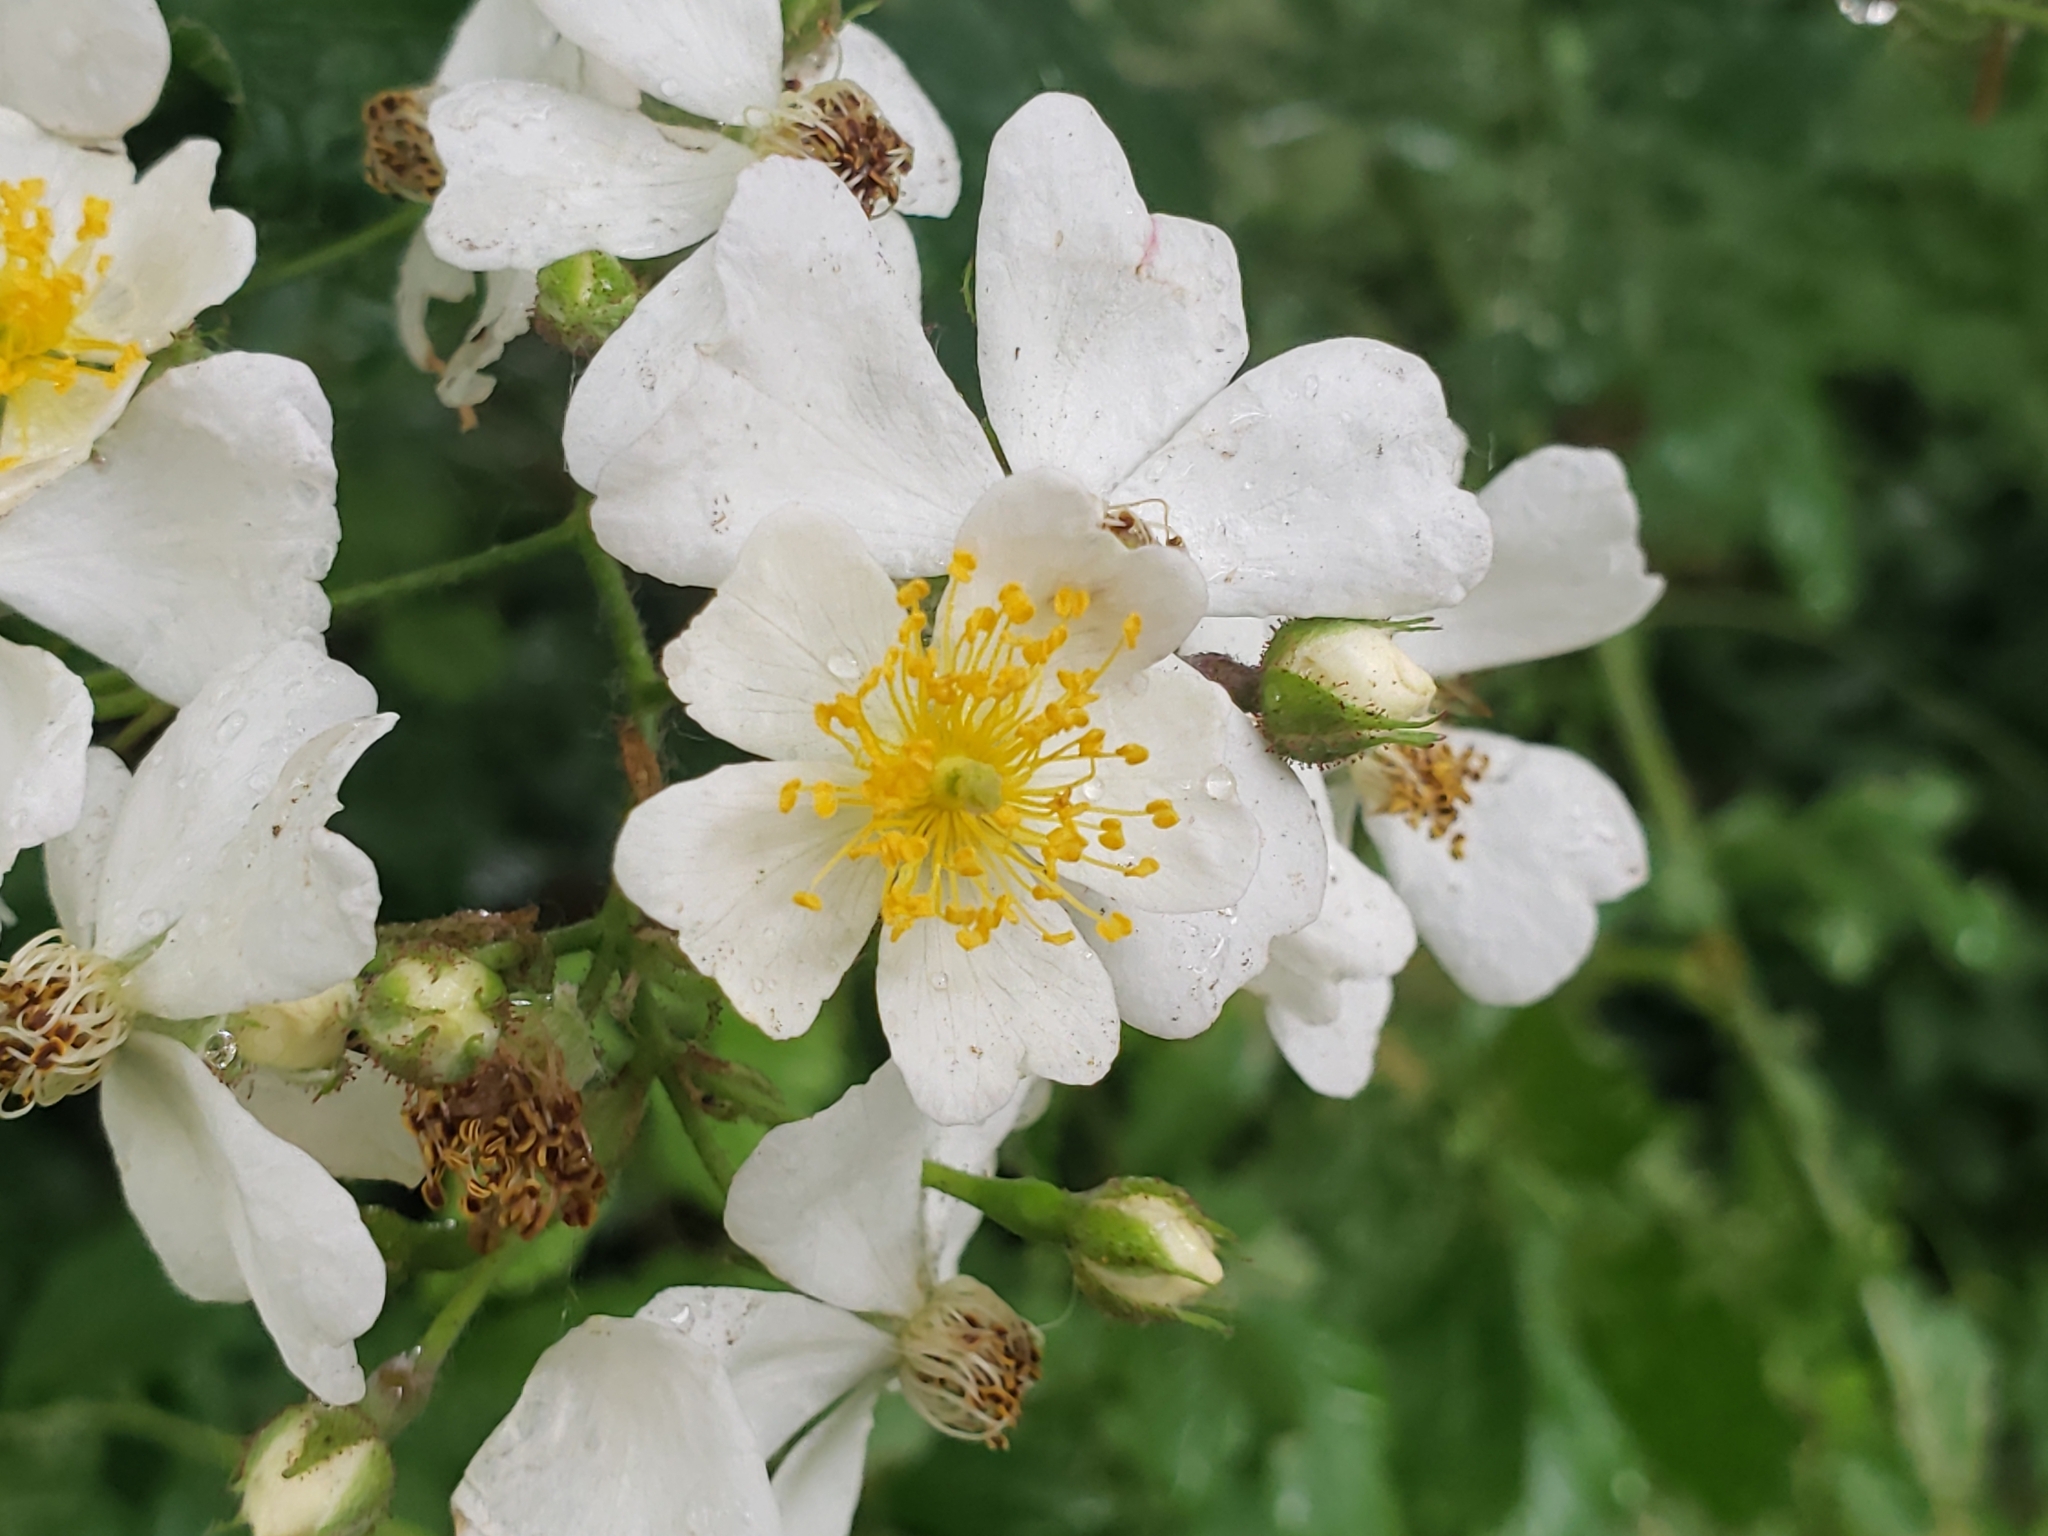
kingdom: Plantae
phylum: Tracheophyta
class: Magnoliopsida
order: Rosales
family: Rosaceae
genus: Rosa
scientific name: Rosa multiflora
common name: Multiflora rose
